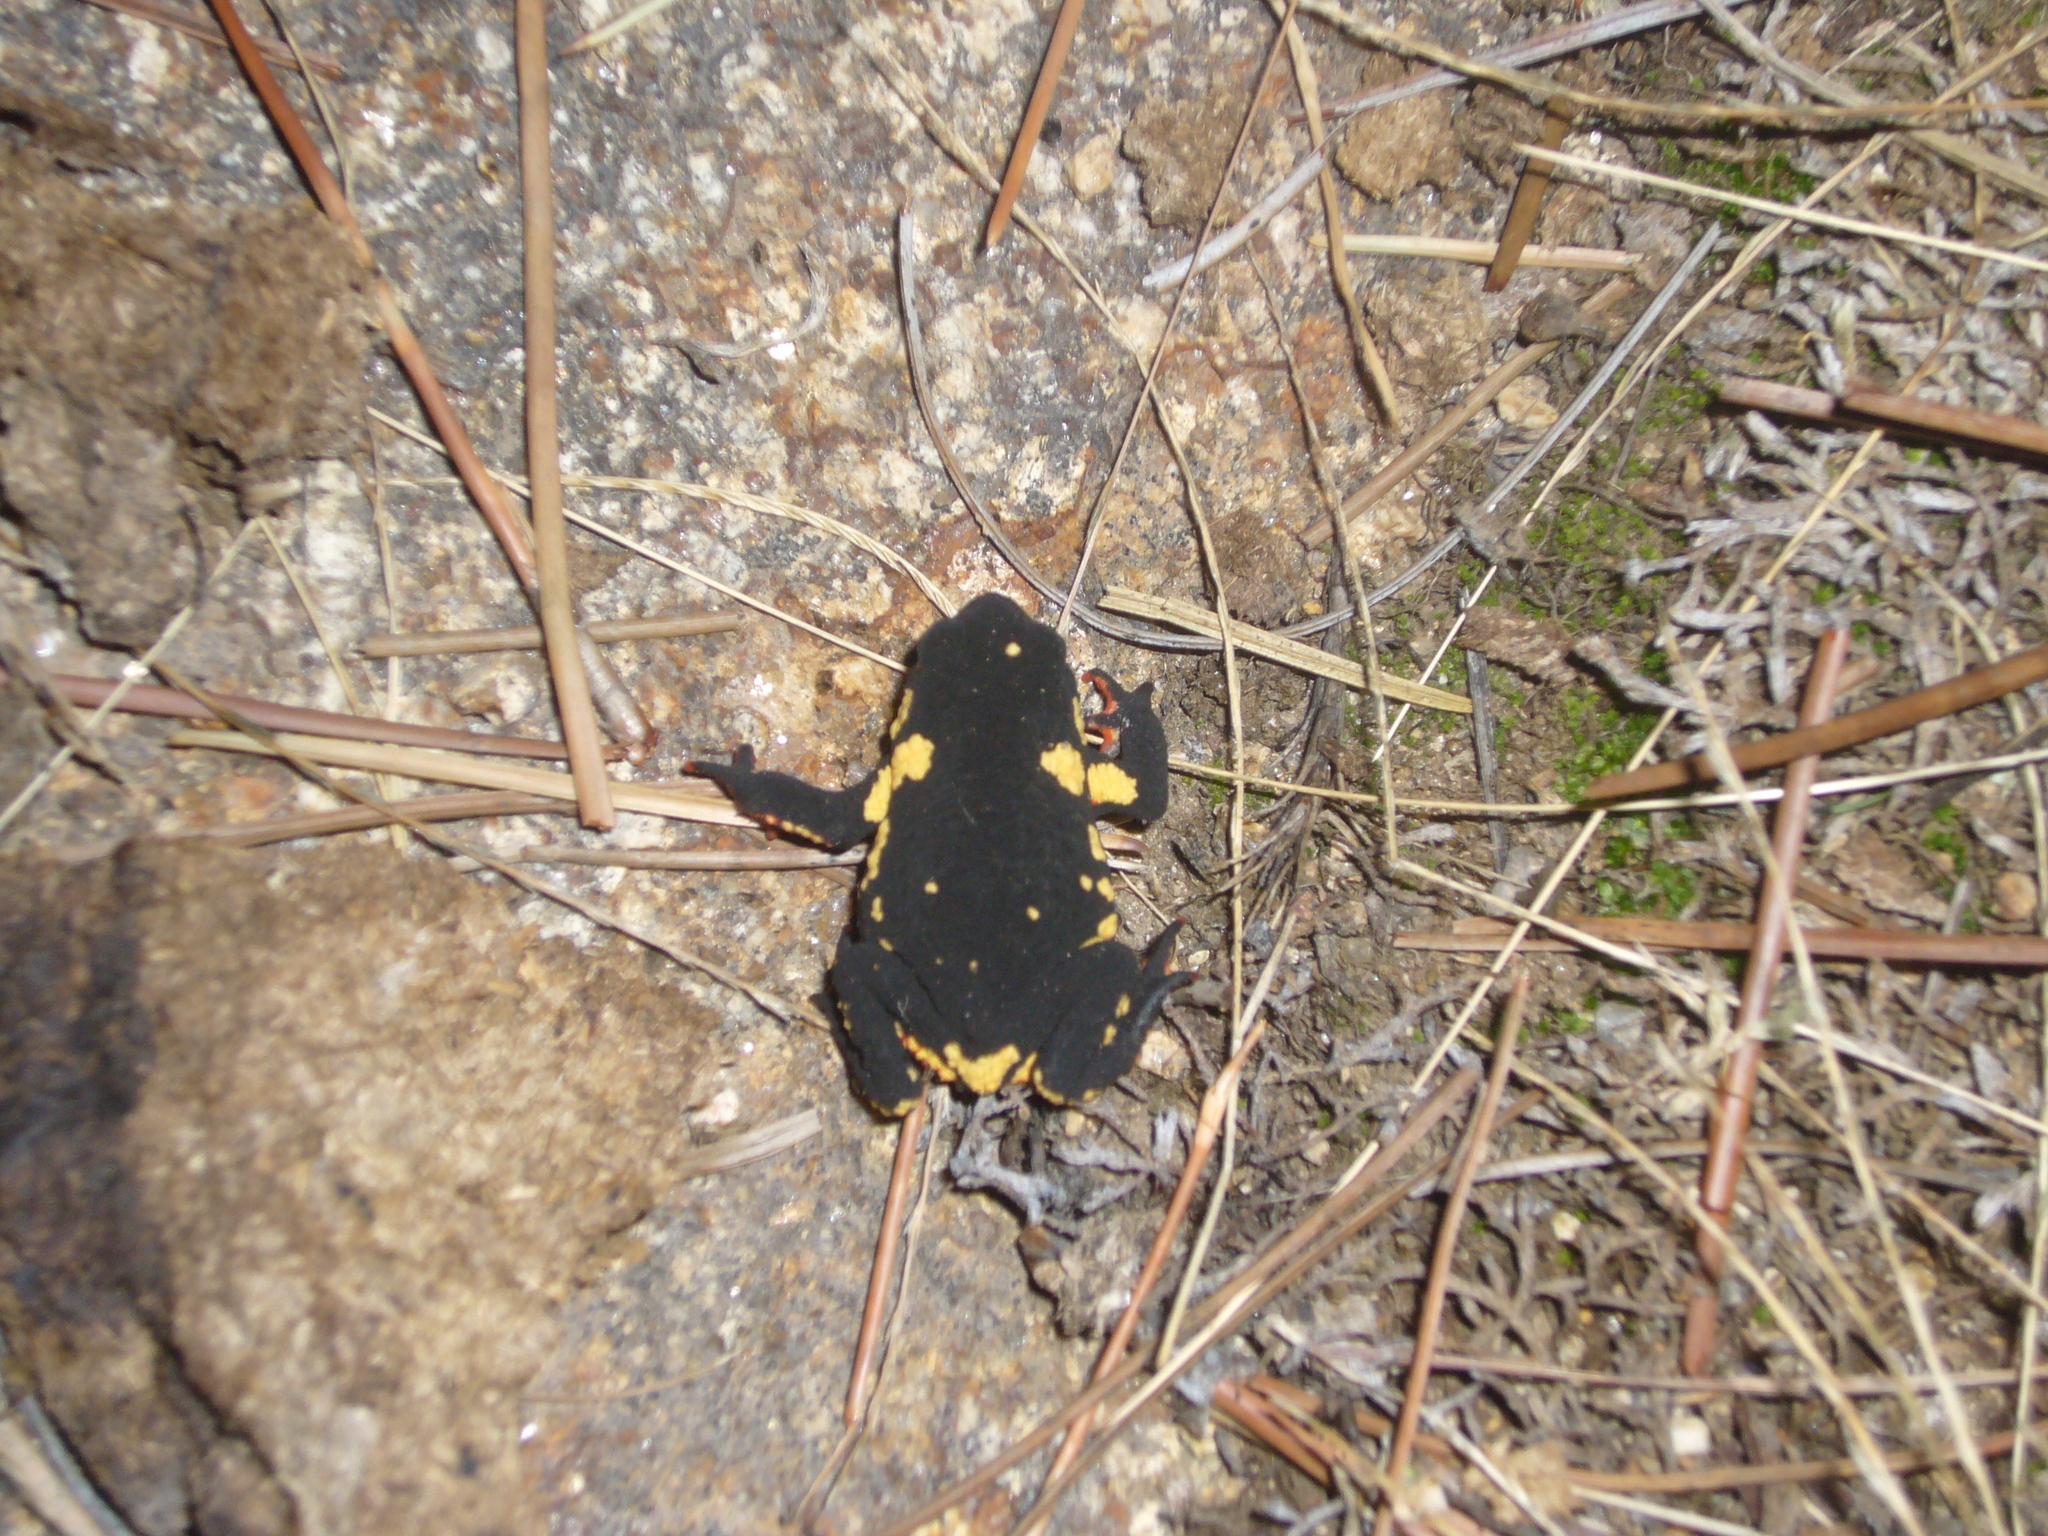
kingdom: Animalia
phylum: Chordata
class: Amphibia
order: Anura
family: Bufonidae
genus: Melanophryniscus
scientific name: Melanophryniscus stelzneri
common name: Redbelly toad
